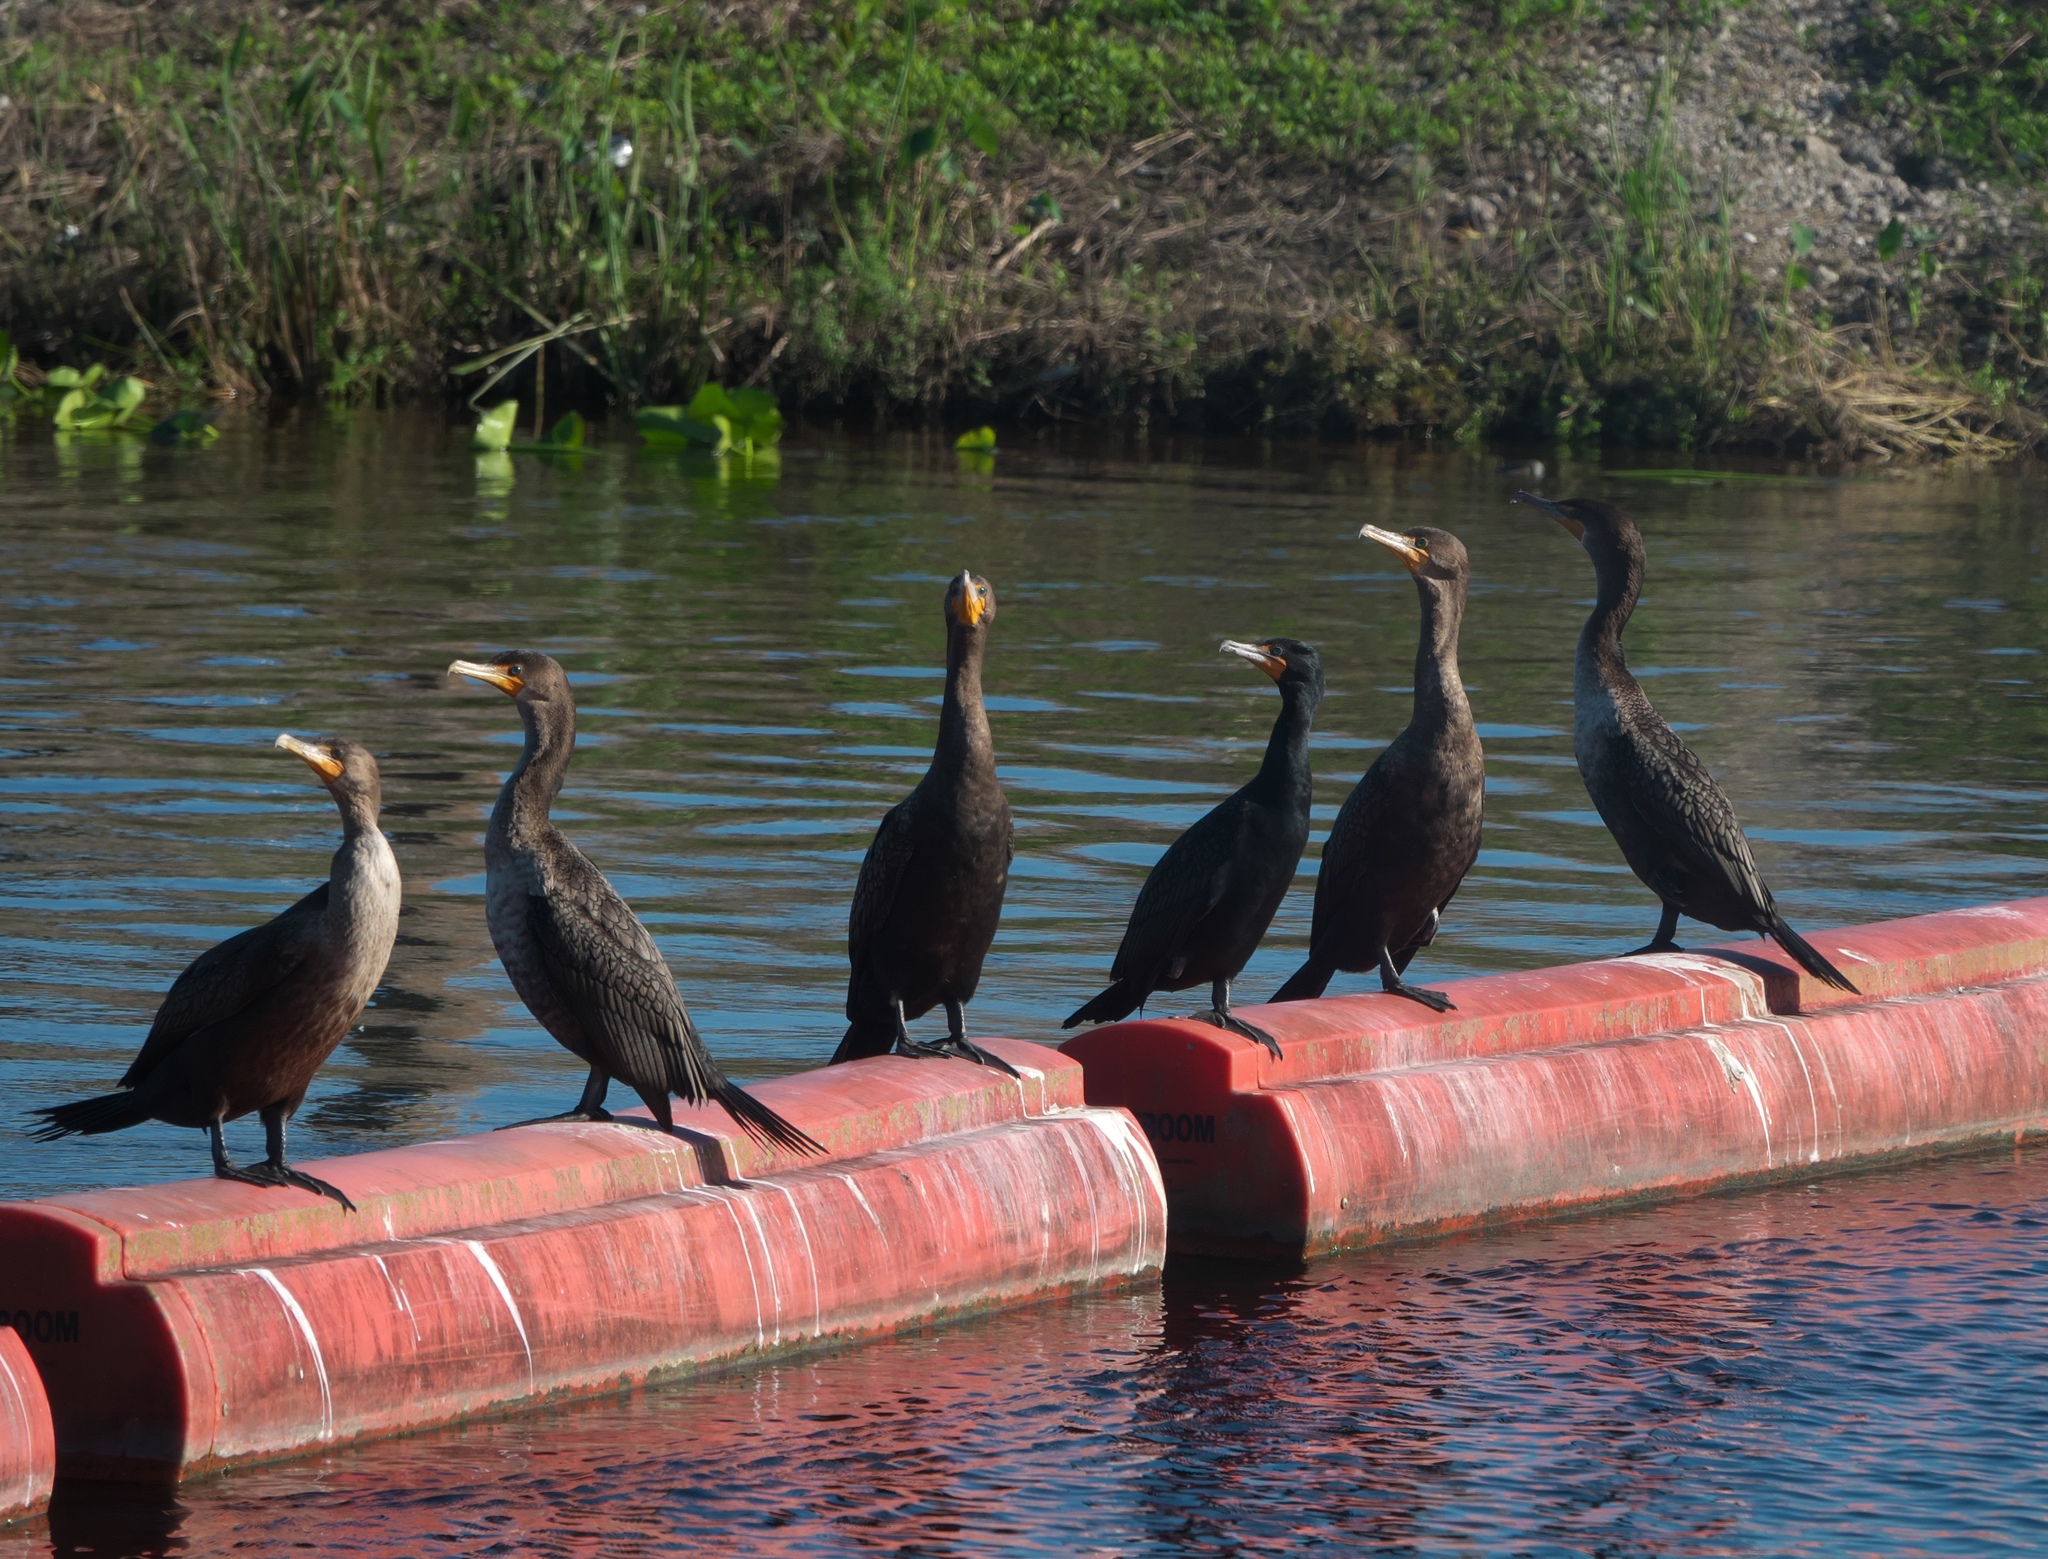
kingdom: Animalia
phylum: Chordata
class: Aves
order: Suliformes
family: Phalacrocoracidae
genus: Phalacrocorax
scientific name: Phalacrocorax auritus
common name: Double-crested cormorant
